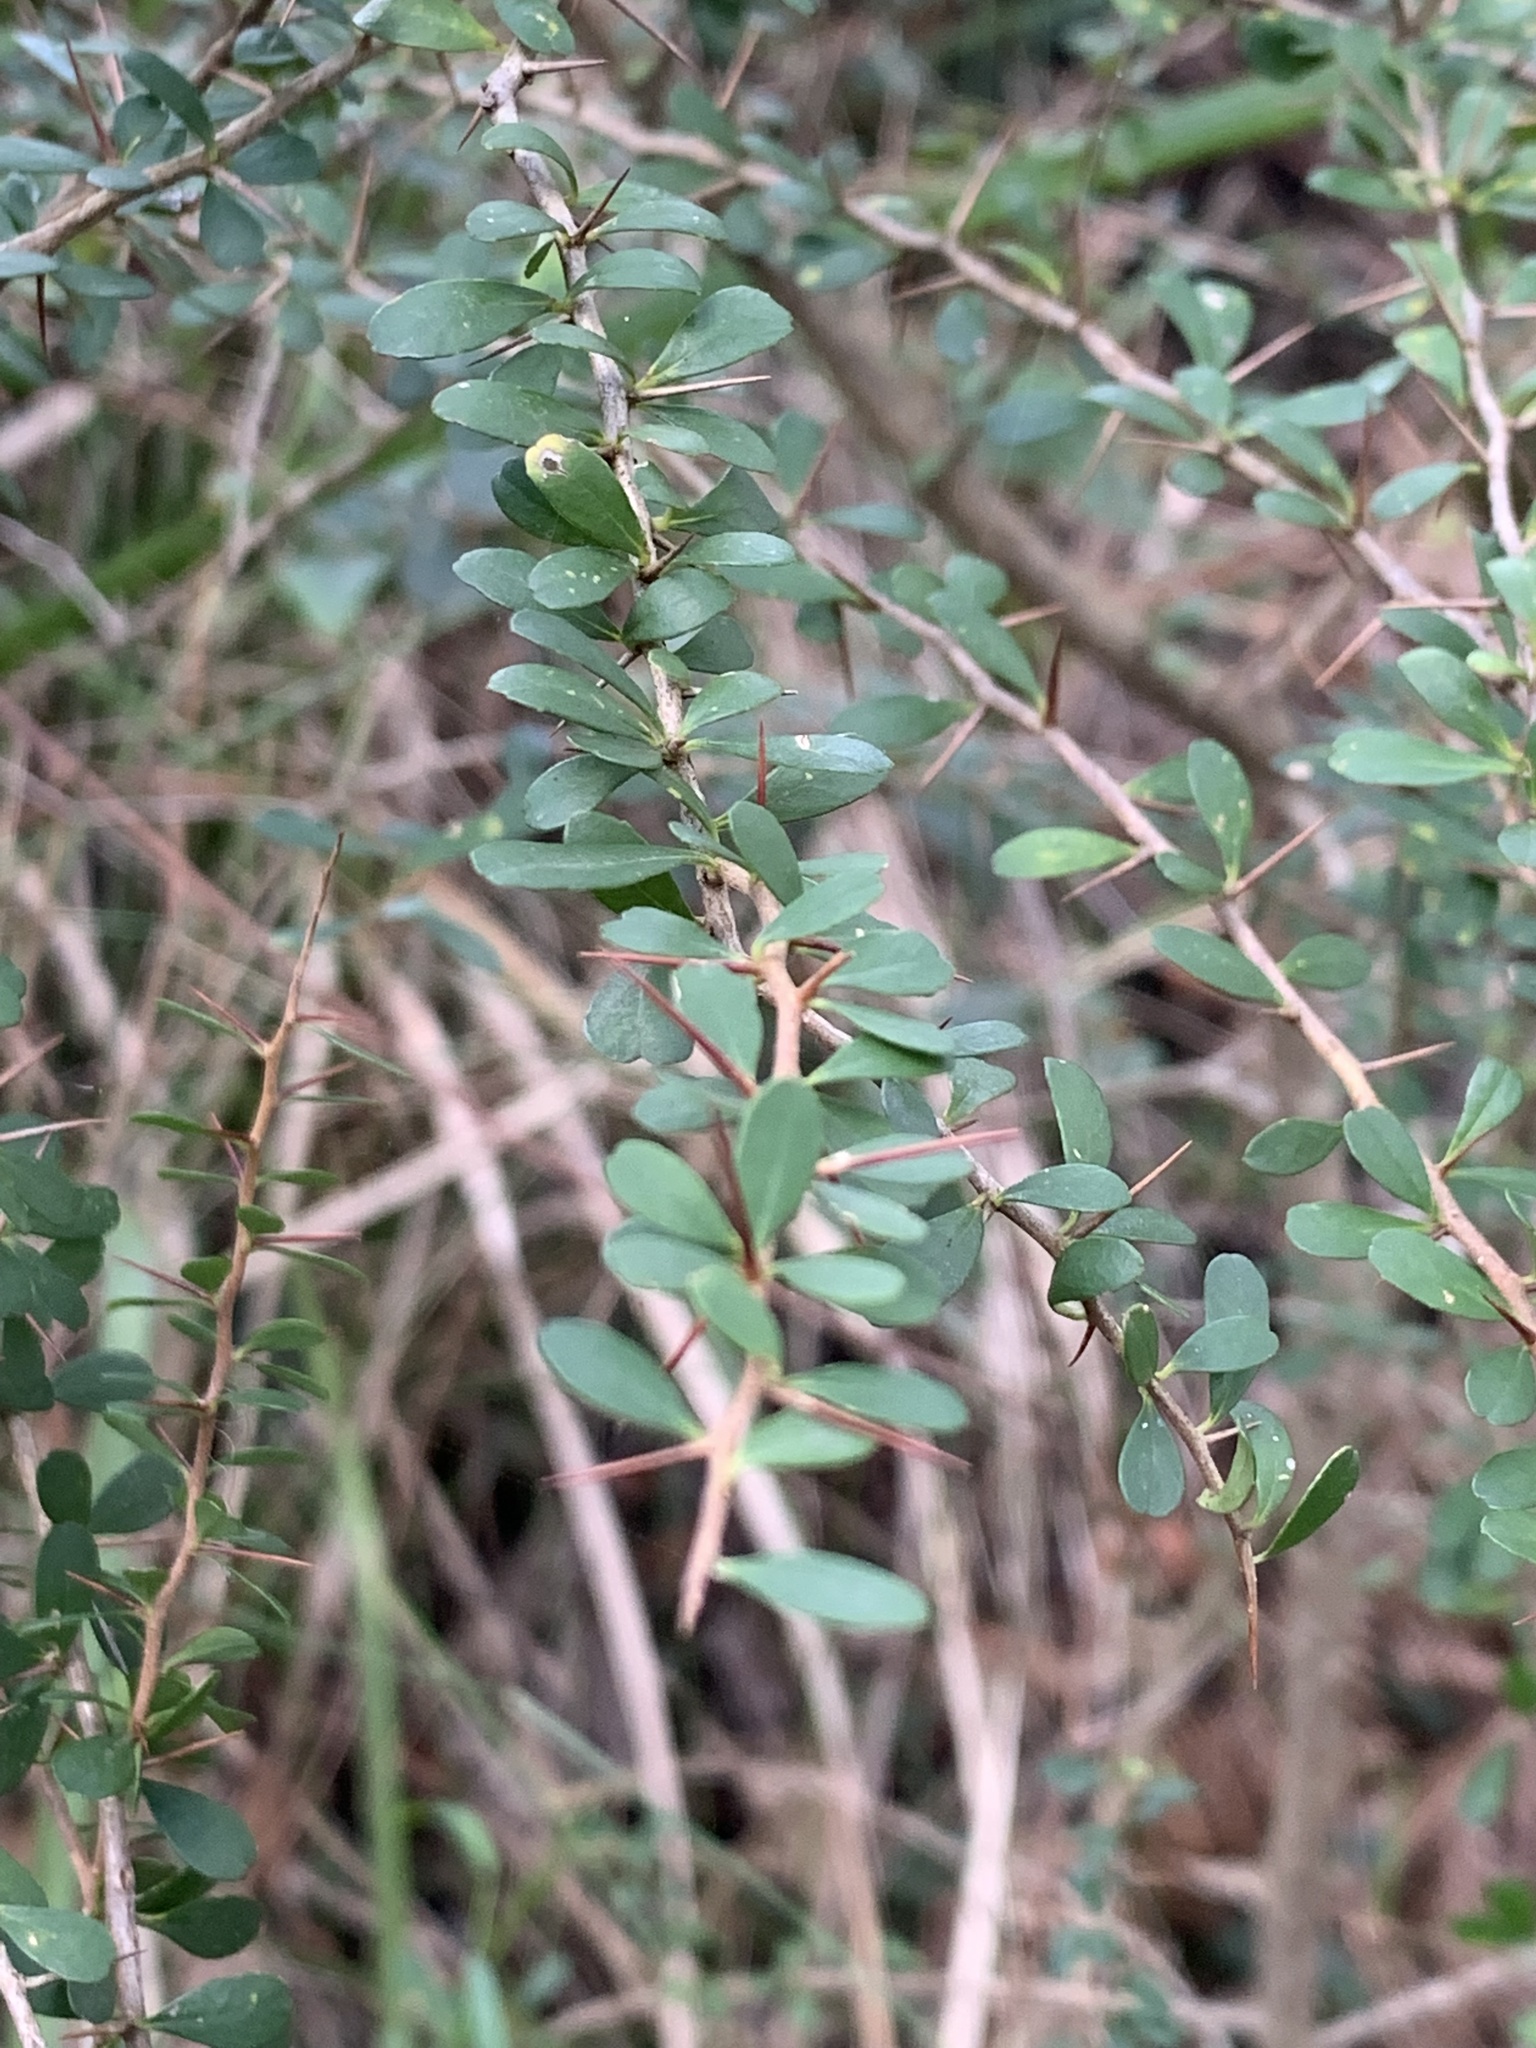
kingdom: Plantae
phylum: Tracheophyta
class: Magnoliopsida
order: Apiales
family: Pittosporaceae
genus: Bursaria
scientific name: Bursaria spinosa
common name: Australian blackthorn
